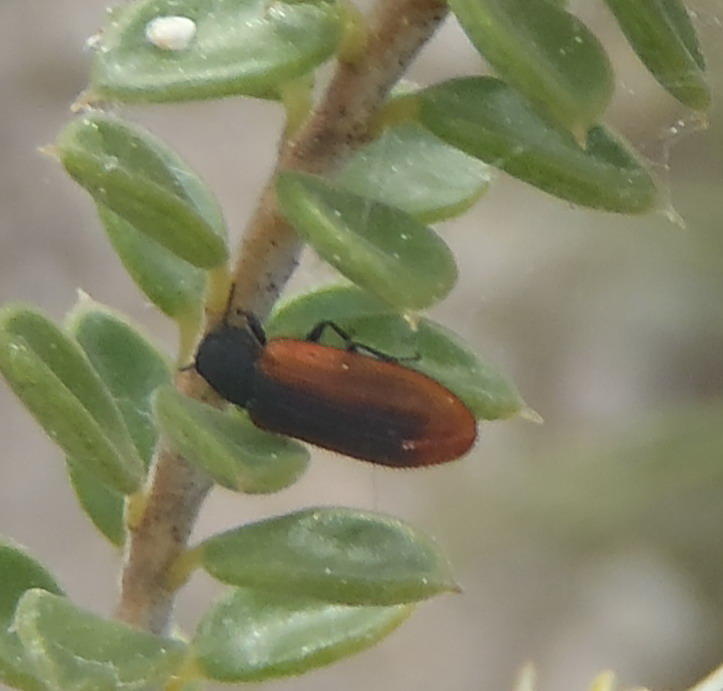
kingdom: Animalia
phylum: Arthropoda
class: Insecta
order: Coleoptera
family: Melyridae
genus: Melyris
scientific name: Melyris
